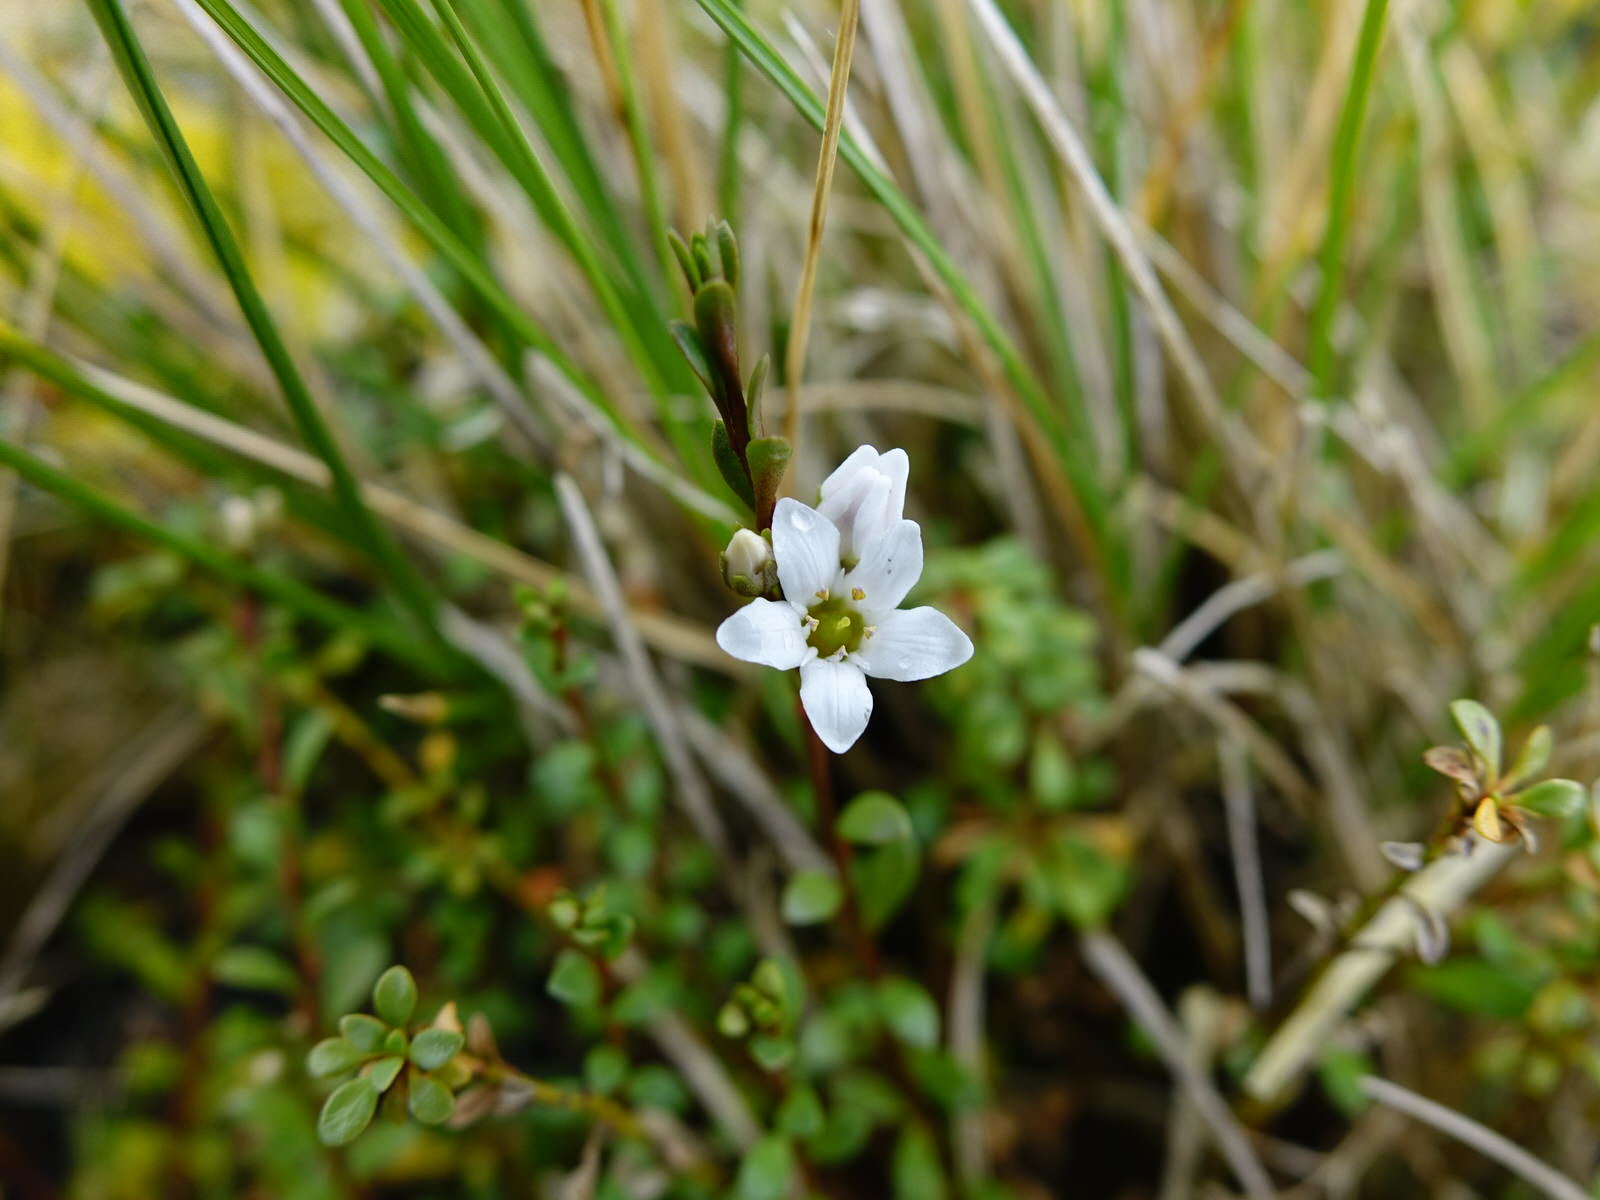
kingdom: Plantae
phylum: Tracheophyta
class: Magnoliopsida
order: Ericales
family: Primulaceae
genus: Samolus
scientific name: Samolus repens
